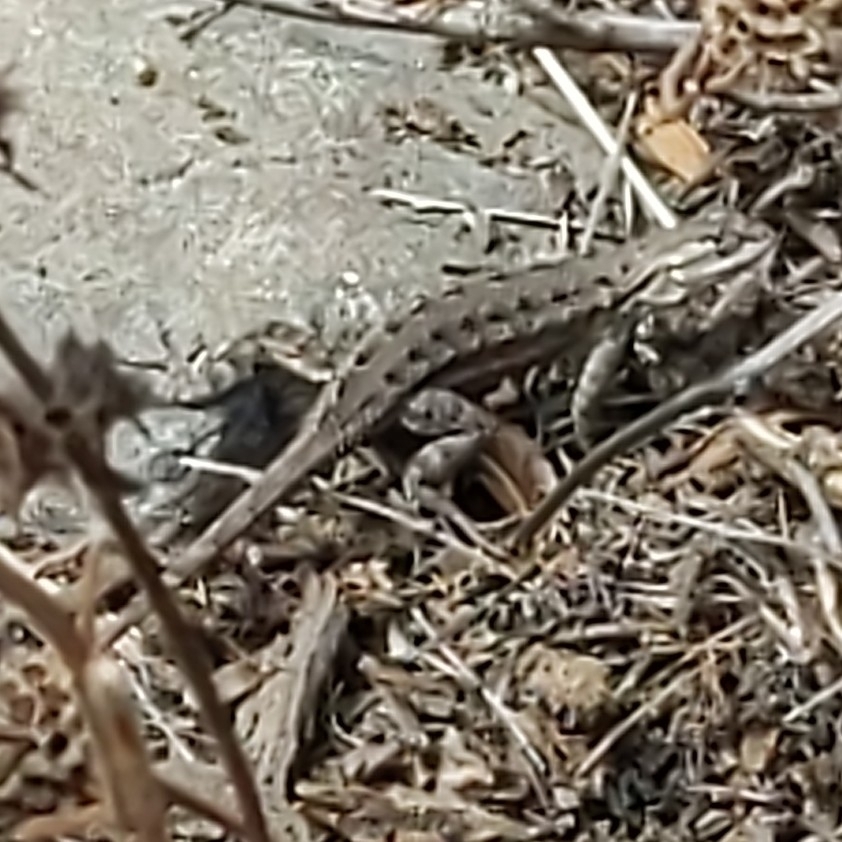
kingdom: Animalia
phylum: Chordata
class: Squamata
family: Phrynosomatidae
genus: Sceloporus
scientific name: Sceloporus occidentalis
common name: Western fence lizard
